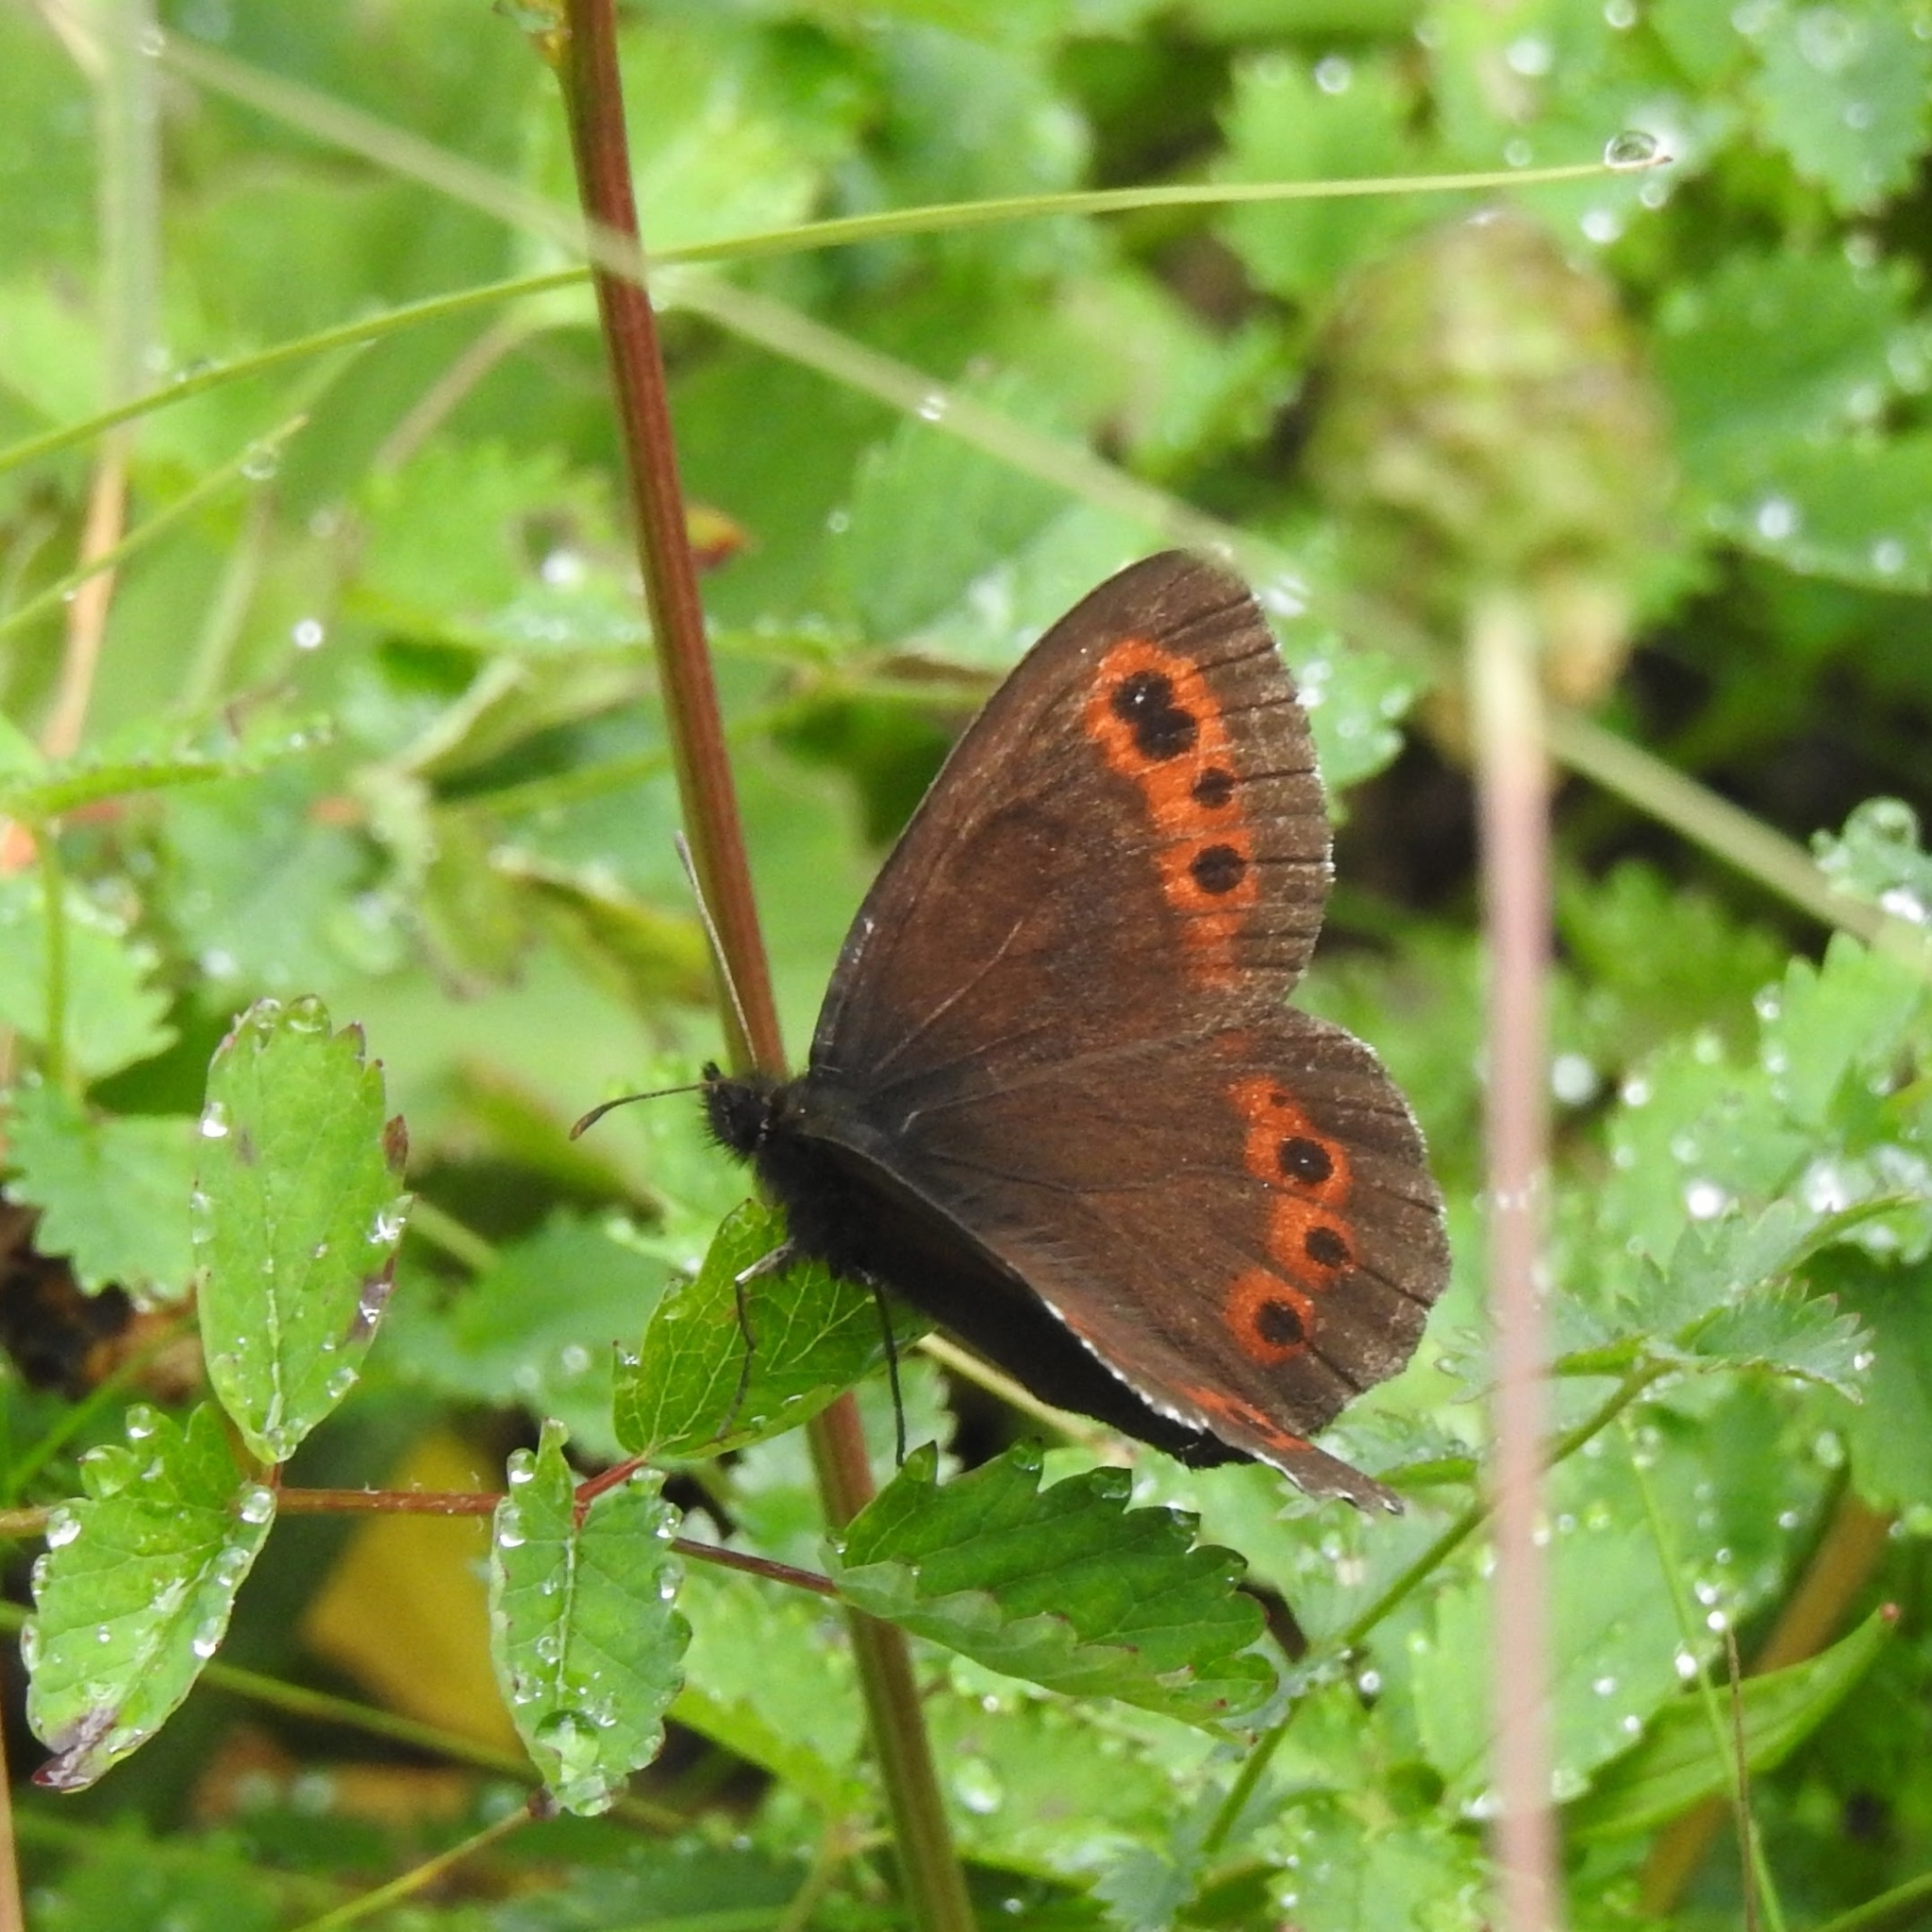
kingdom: Animalia
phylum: Arthropoda
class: Insecta
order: Lepidoptera
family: Nymphalidae
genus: Erebia
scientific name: Erebia ligea
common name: Arran brown
